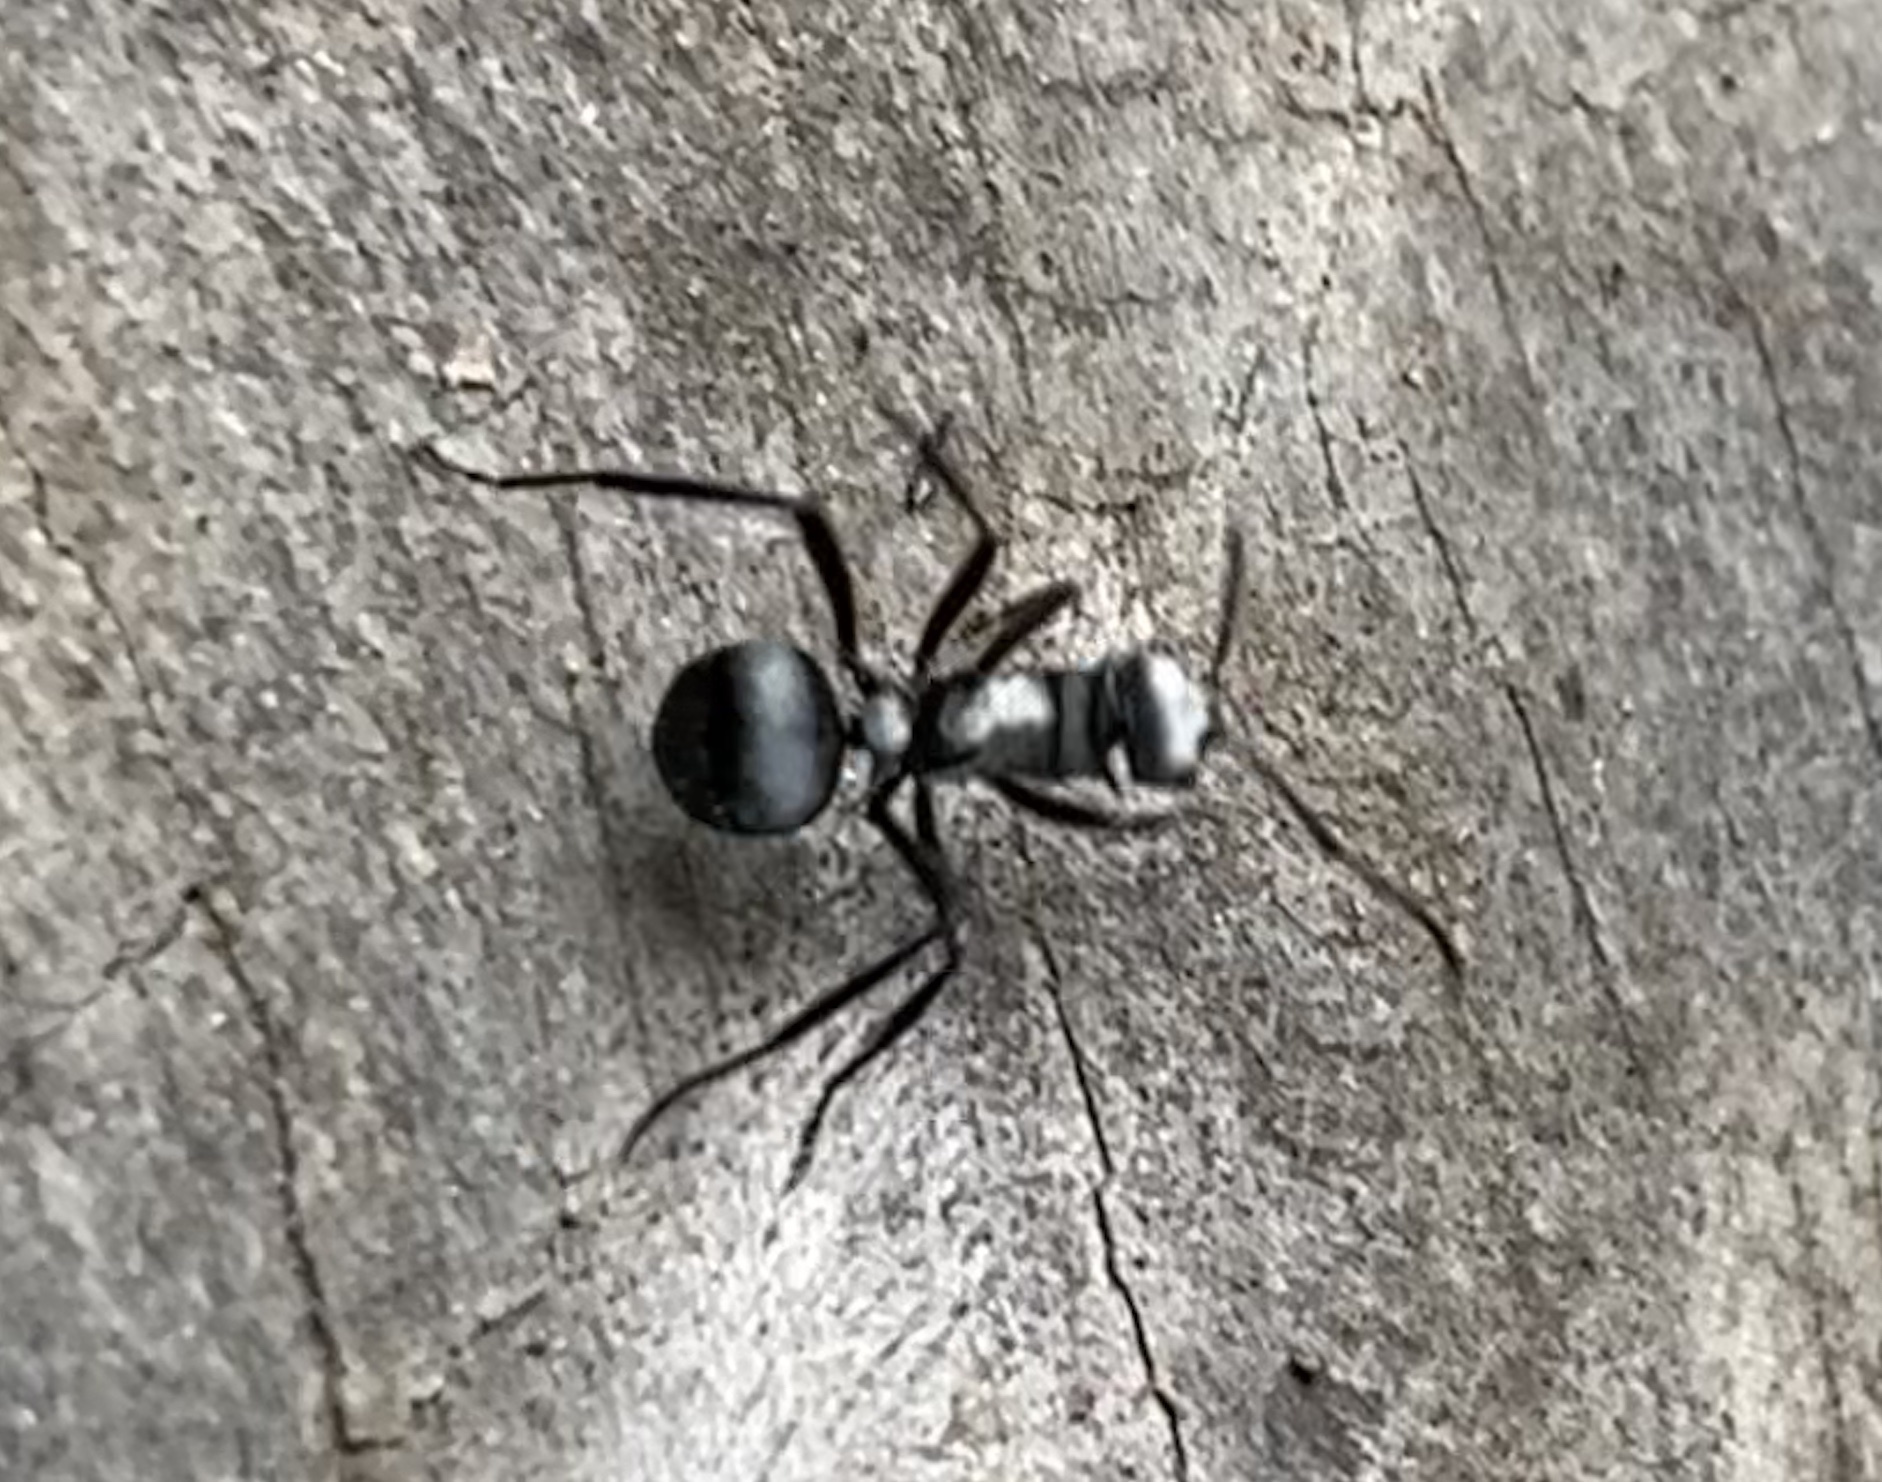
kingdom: Animalia
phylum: Arthropoda
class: Insecta
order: Hymenoptera
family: Formicidae
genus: Polyrhachis
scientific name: Polyrhachis daemeli
